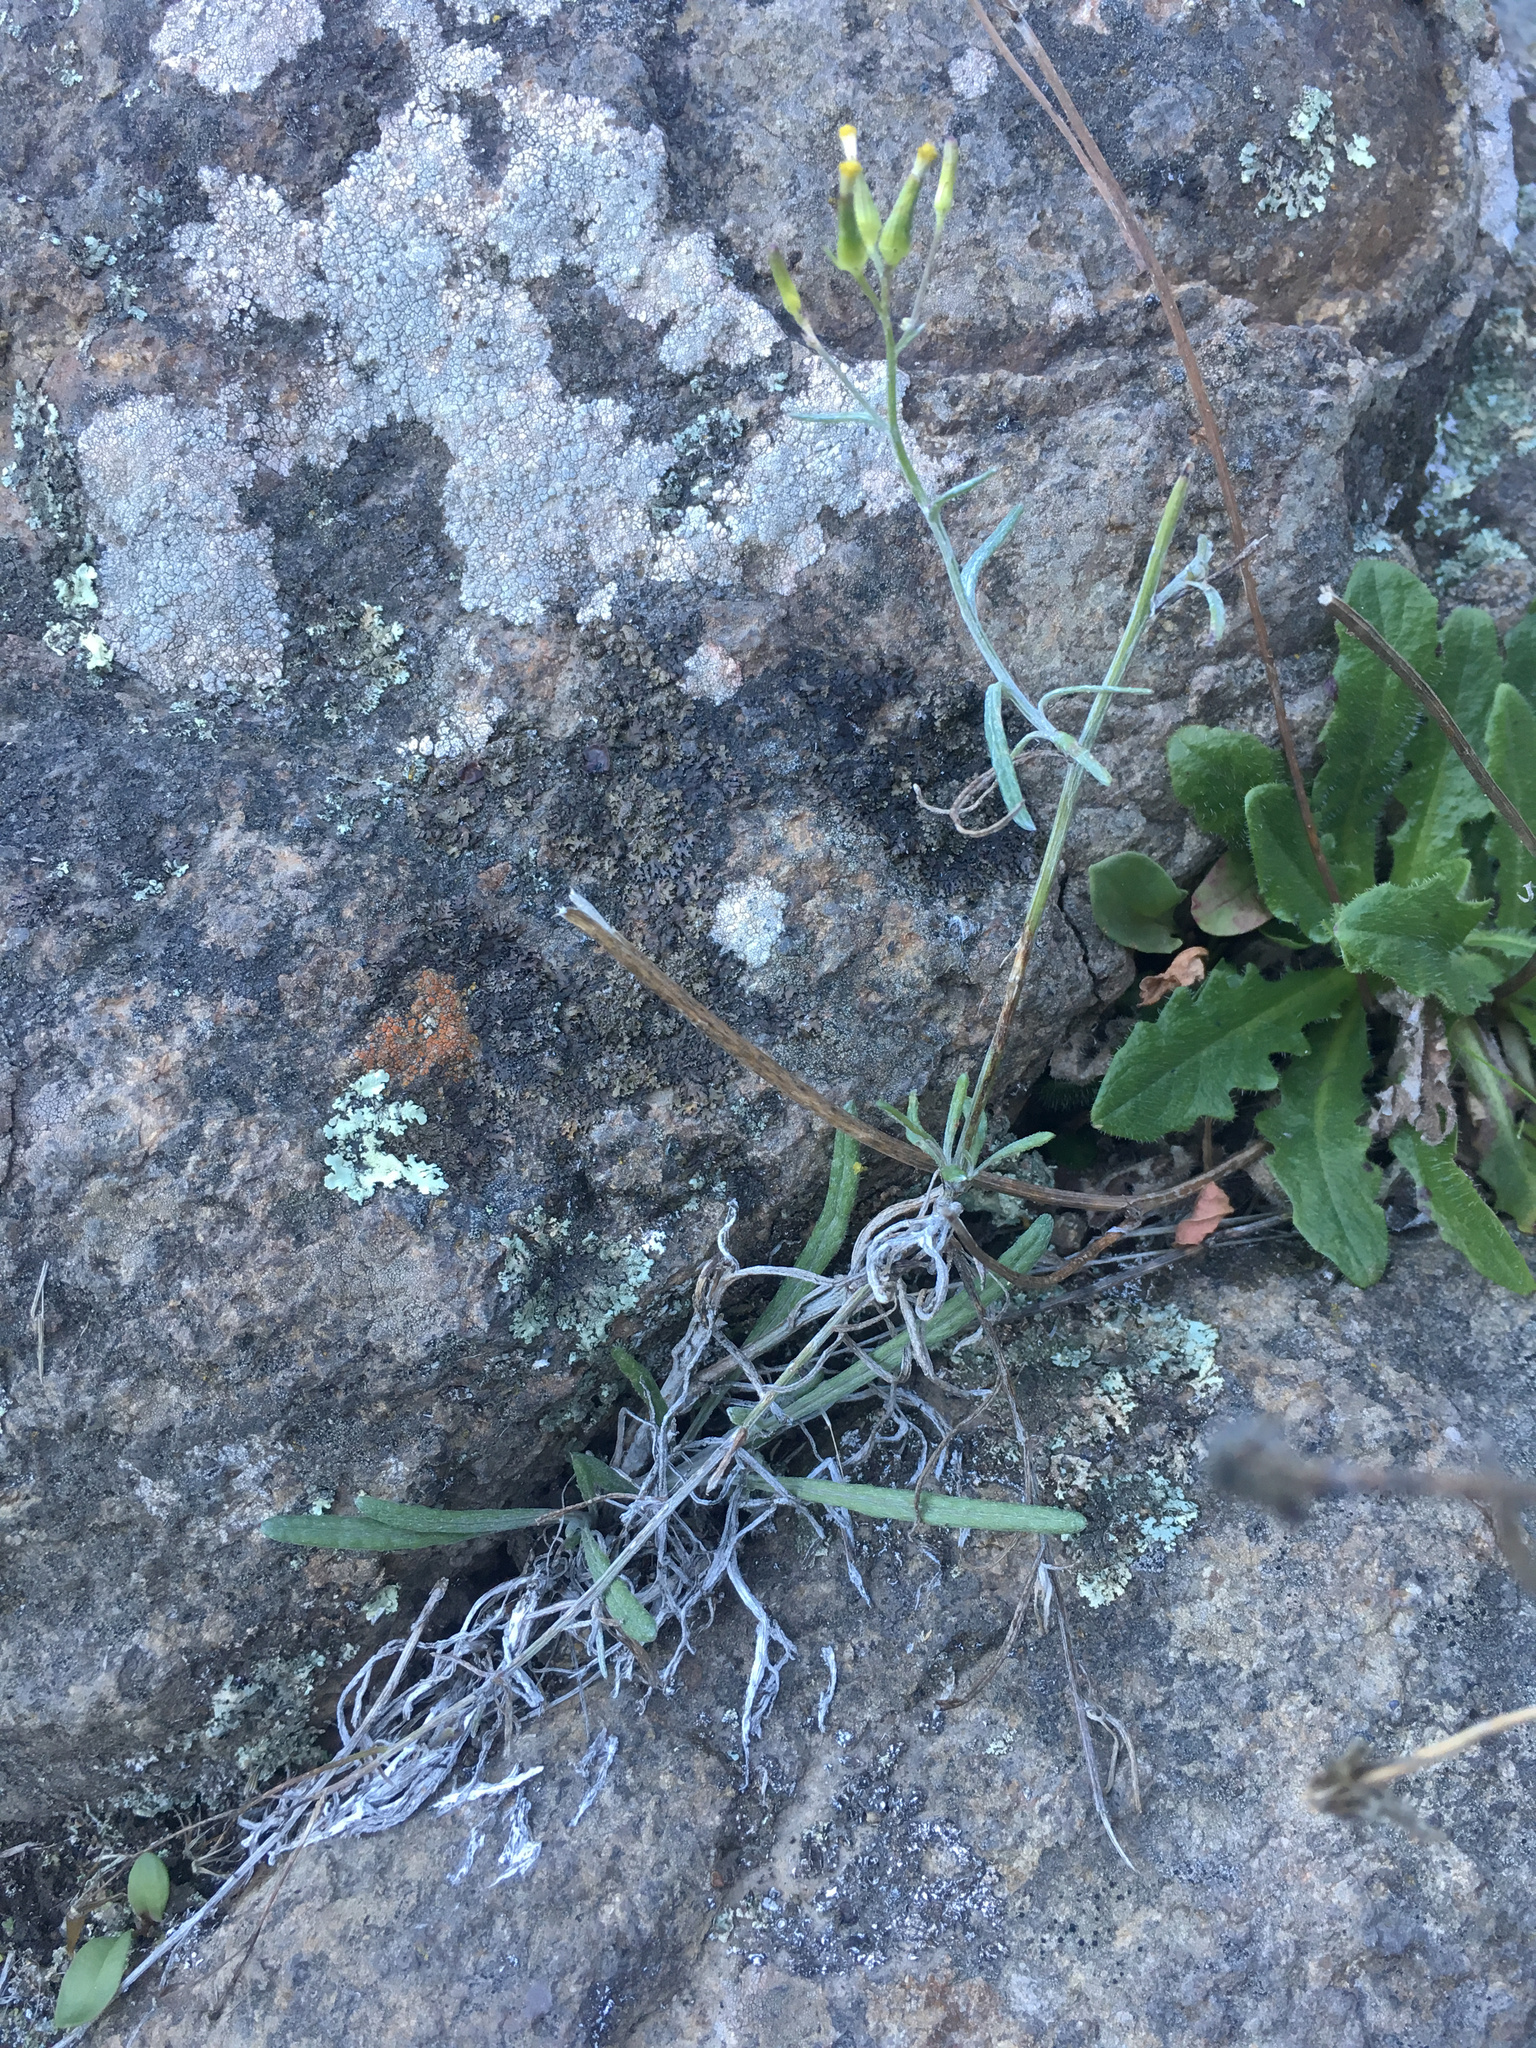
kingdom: Plantae
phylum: Tracheophyta
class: Magnoliopsida
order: Asterales
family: Asteraceae
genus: Senecio
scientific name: Senecio quadridentatus
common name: Cotton fireweed
